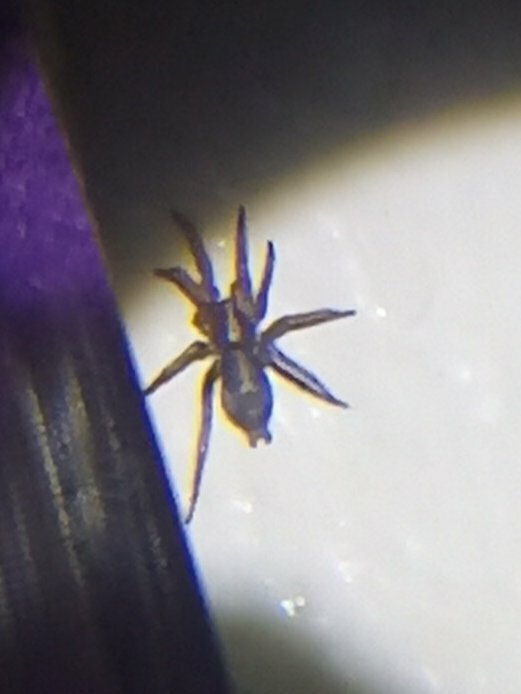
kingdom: Animalia
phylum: Arthropoda
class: Arachnida
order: Araneae
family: Gnaphosidae
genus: Herpyllus
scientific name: Herpyllus propinquus
